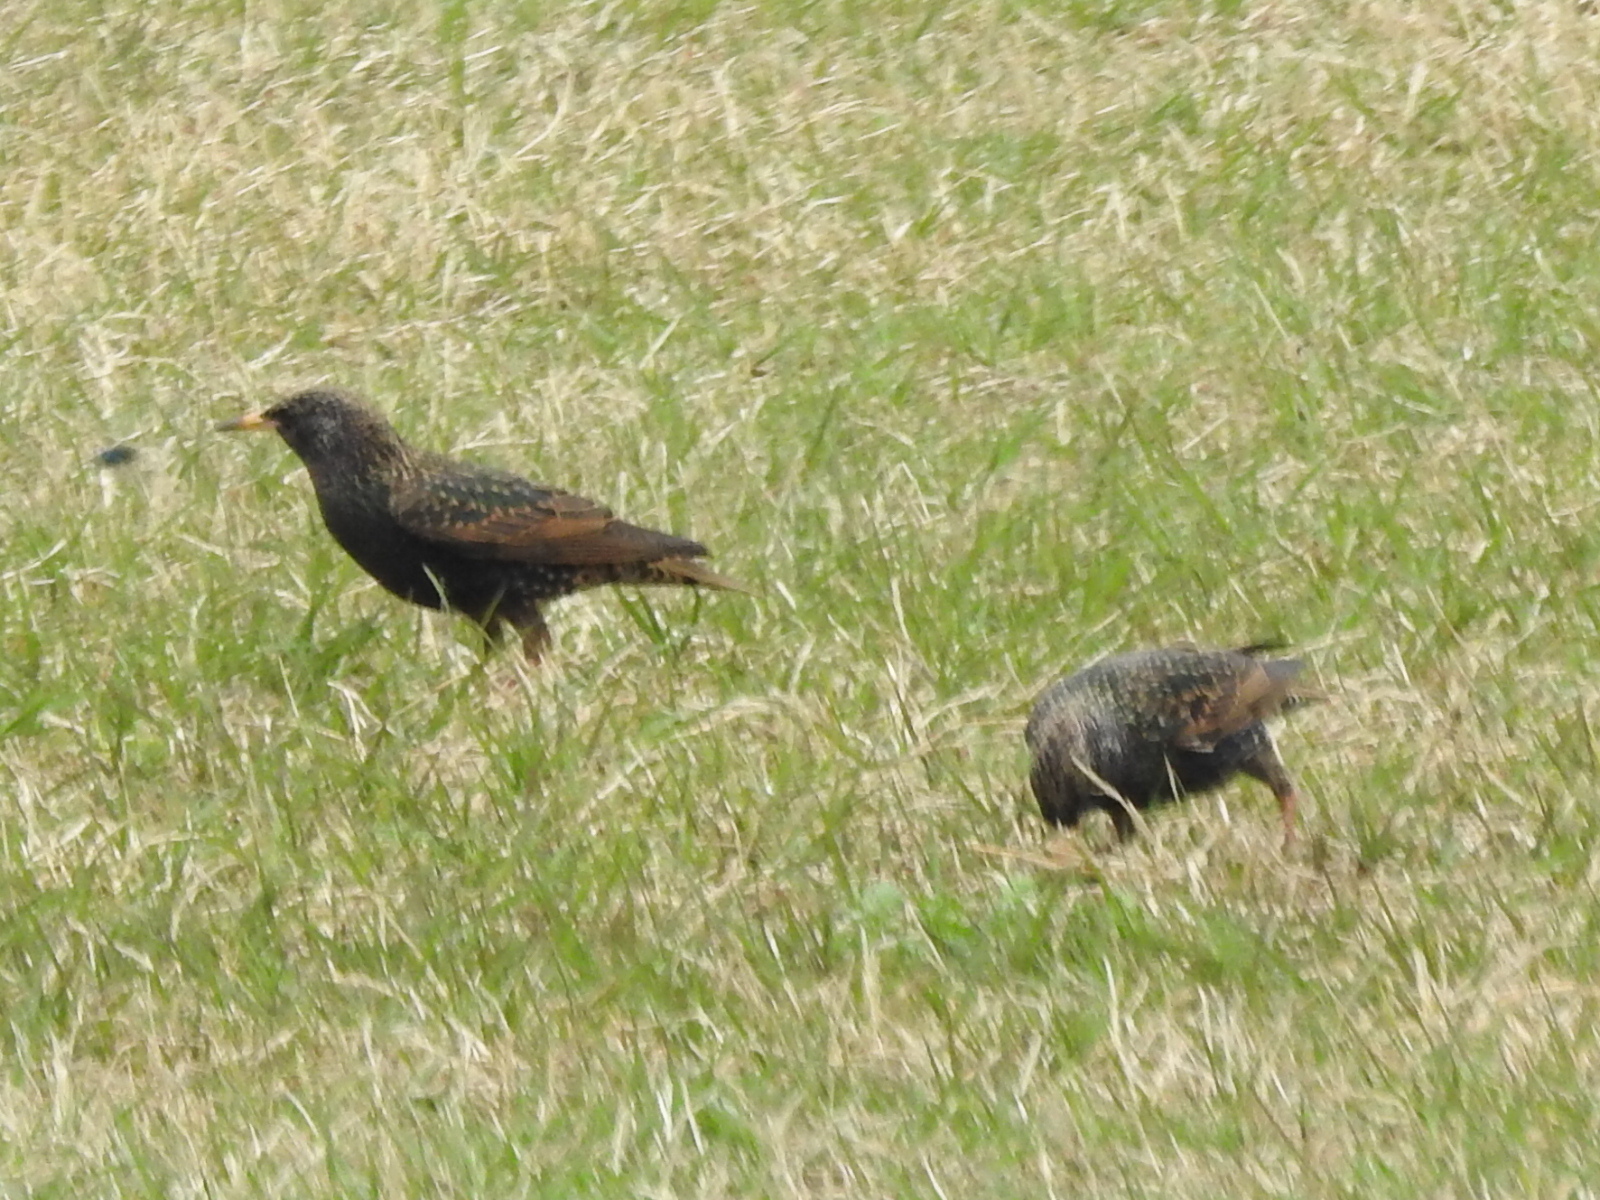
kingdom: Animalia
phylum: Chordata
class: Aves
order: Passeriformes
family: Sturnidae
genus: Sturnus
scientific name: Sturnus vulgaris
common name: Common starling
